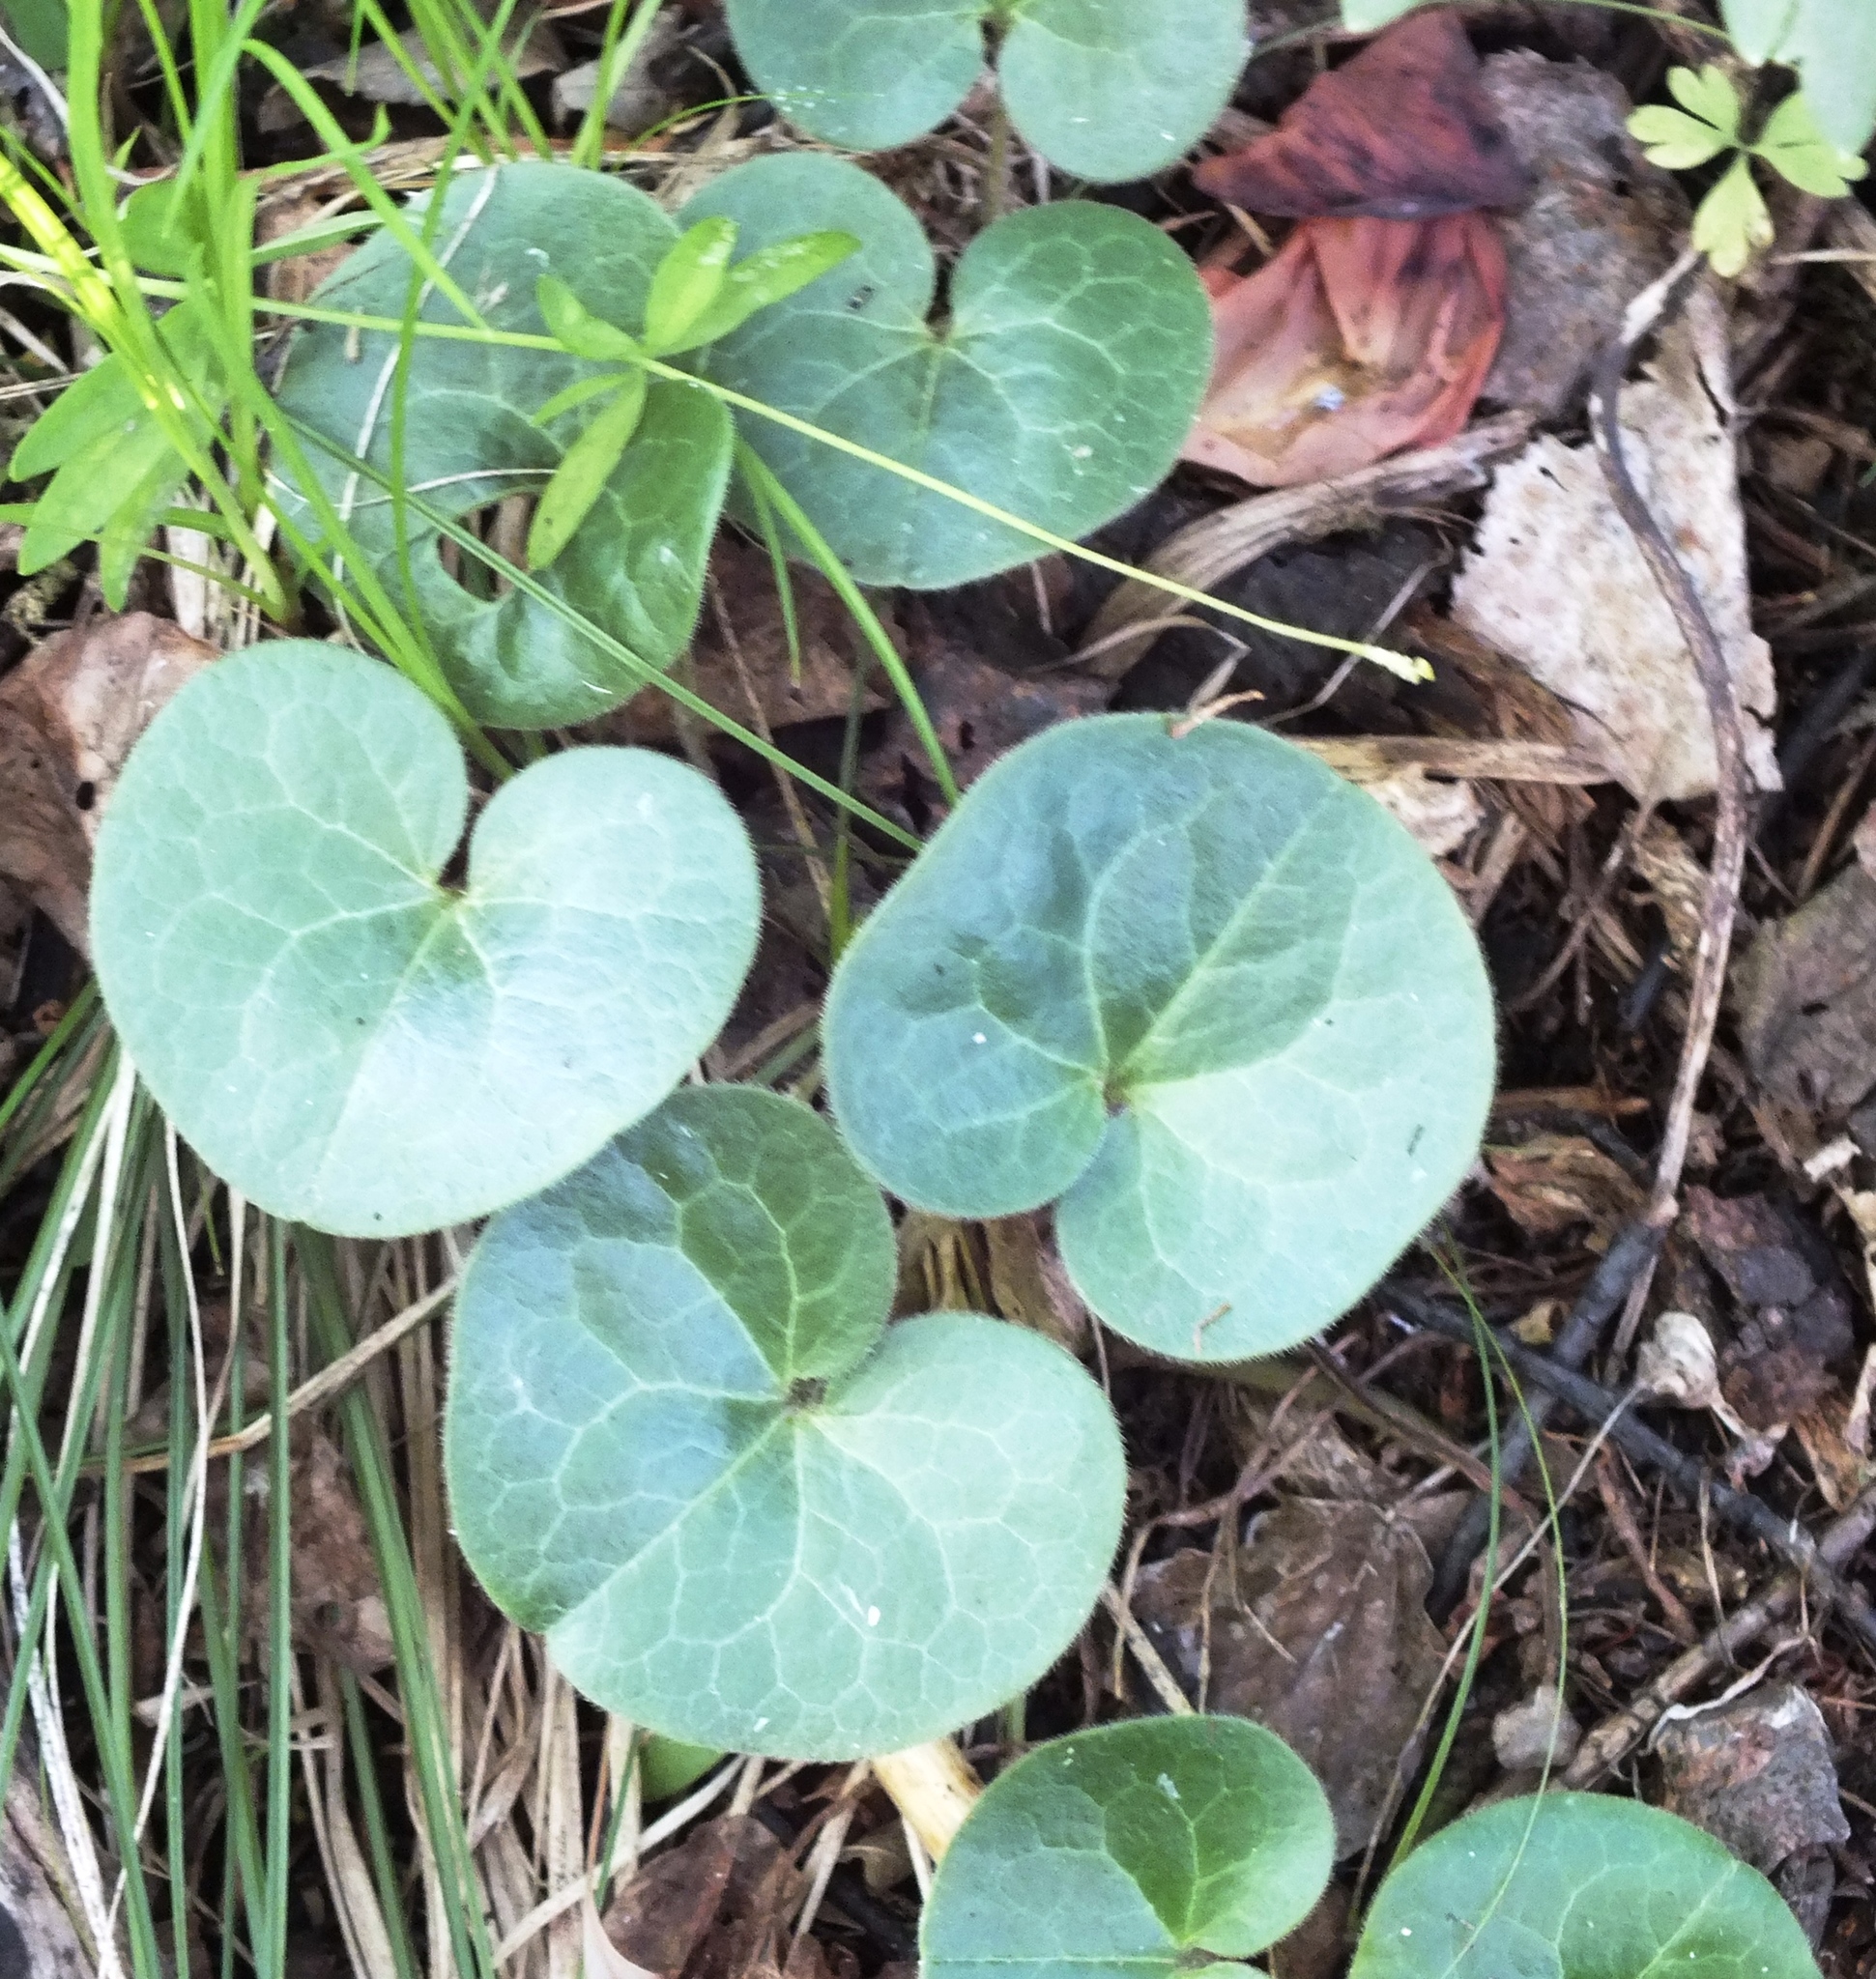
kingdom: Plantae
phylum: Tracheophyta
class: Magnoliopsida
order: Piperales
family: Aristolochiaceae
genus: Asarum
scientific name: Asarum europaeum
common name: Asarabacca
